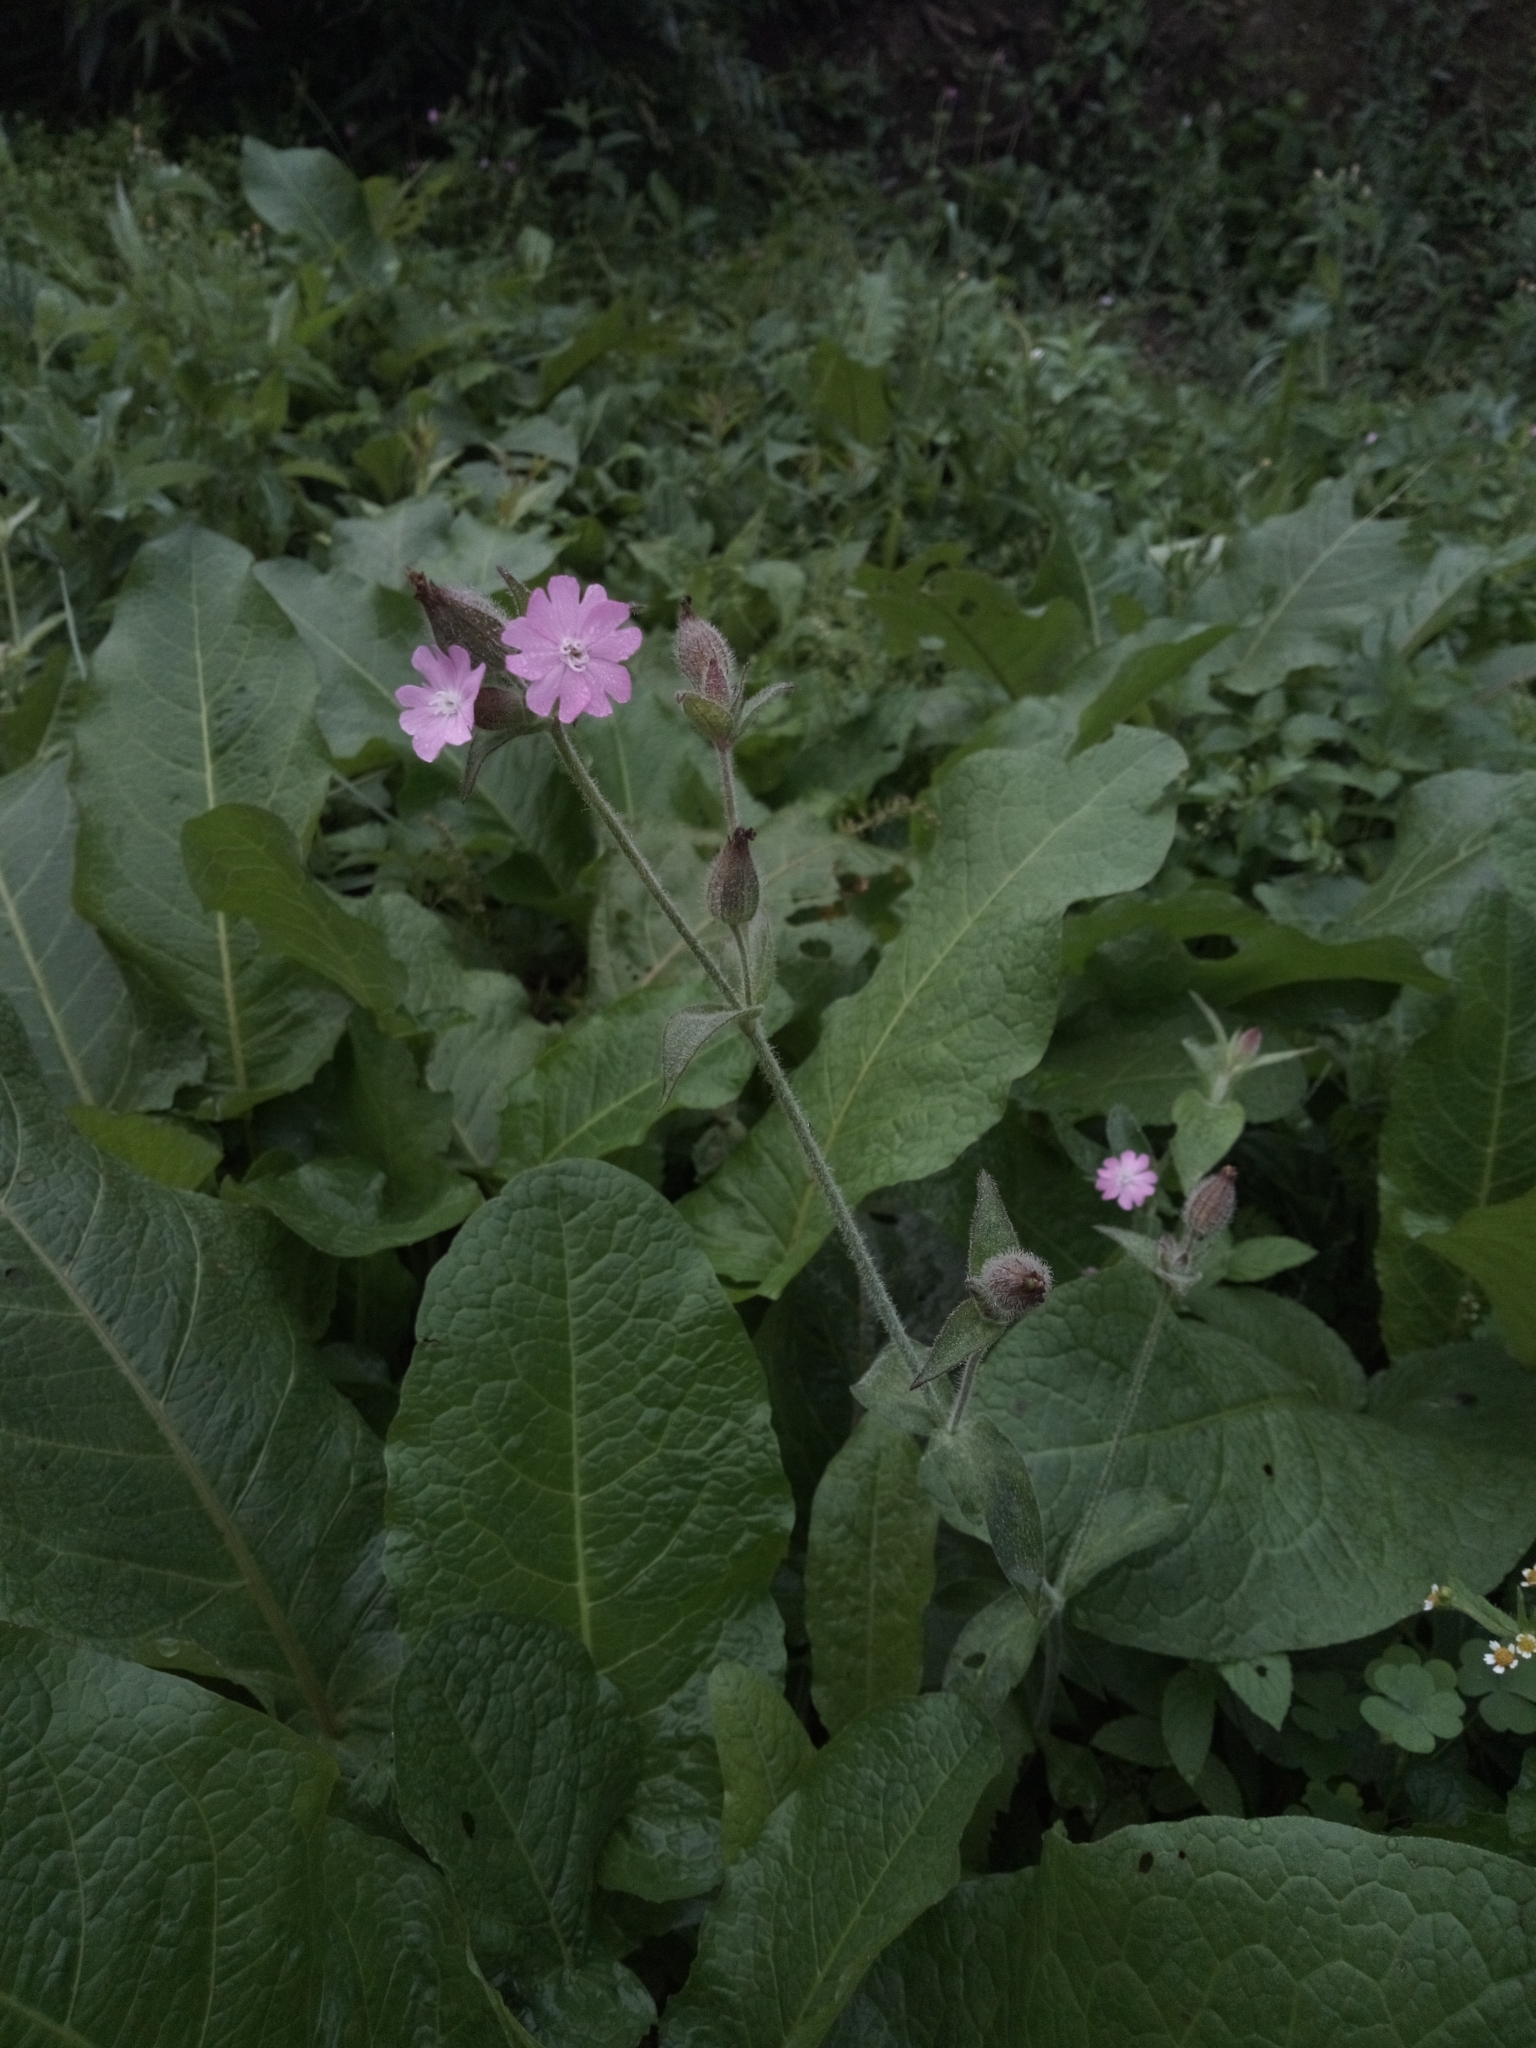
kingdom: Plantae
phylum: Tracheophyta
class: Magnoliopsida
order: Caryophyllales
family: Caryophyllaceae
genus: Silene
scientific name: Silene dioica
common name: Red campion
